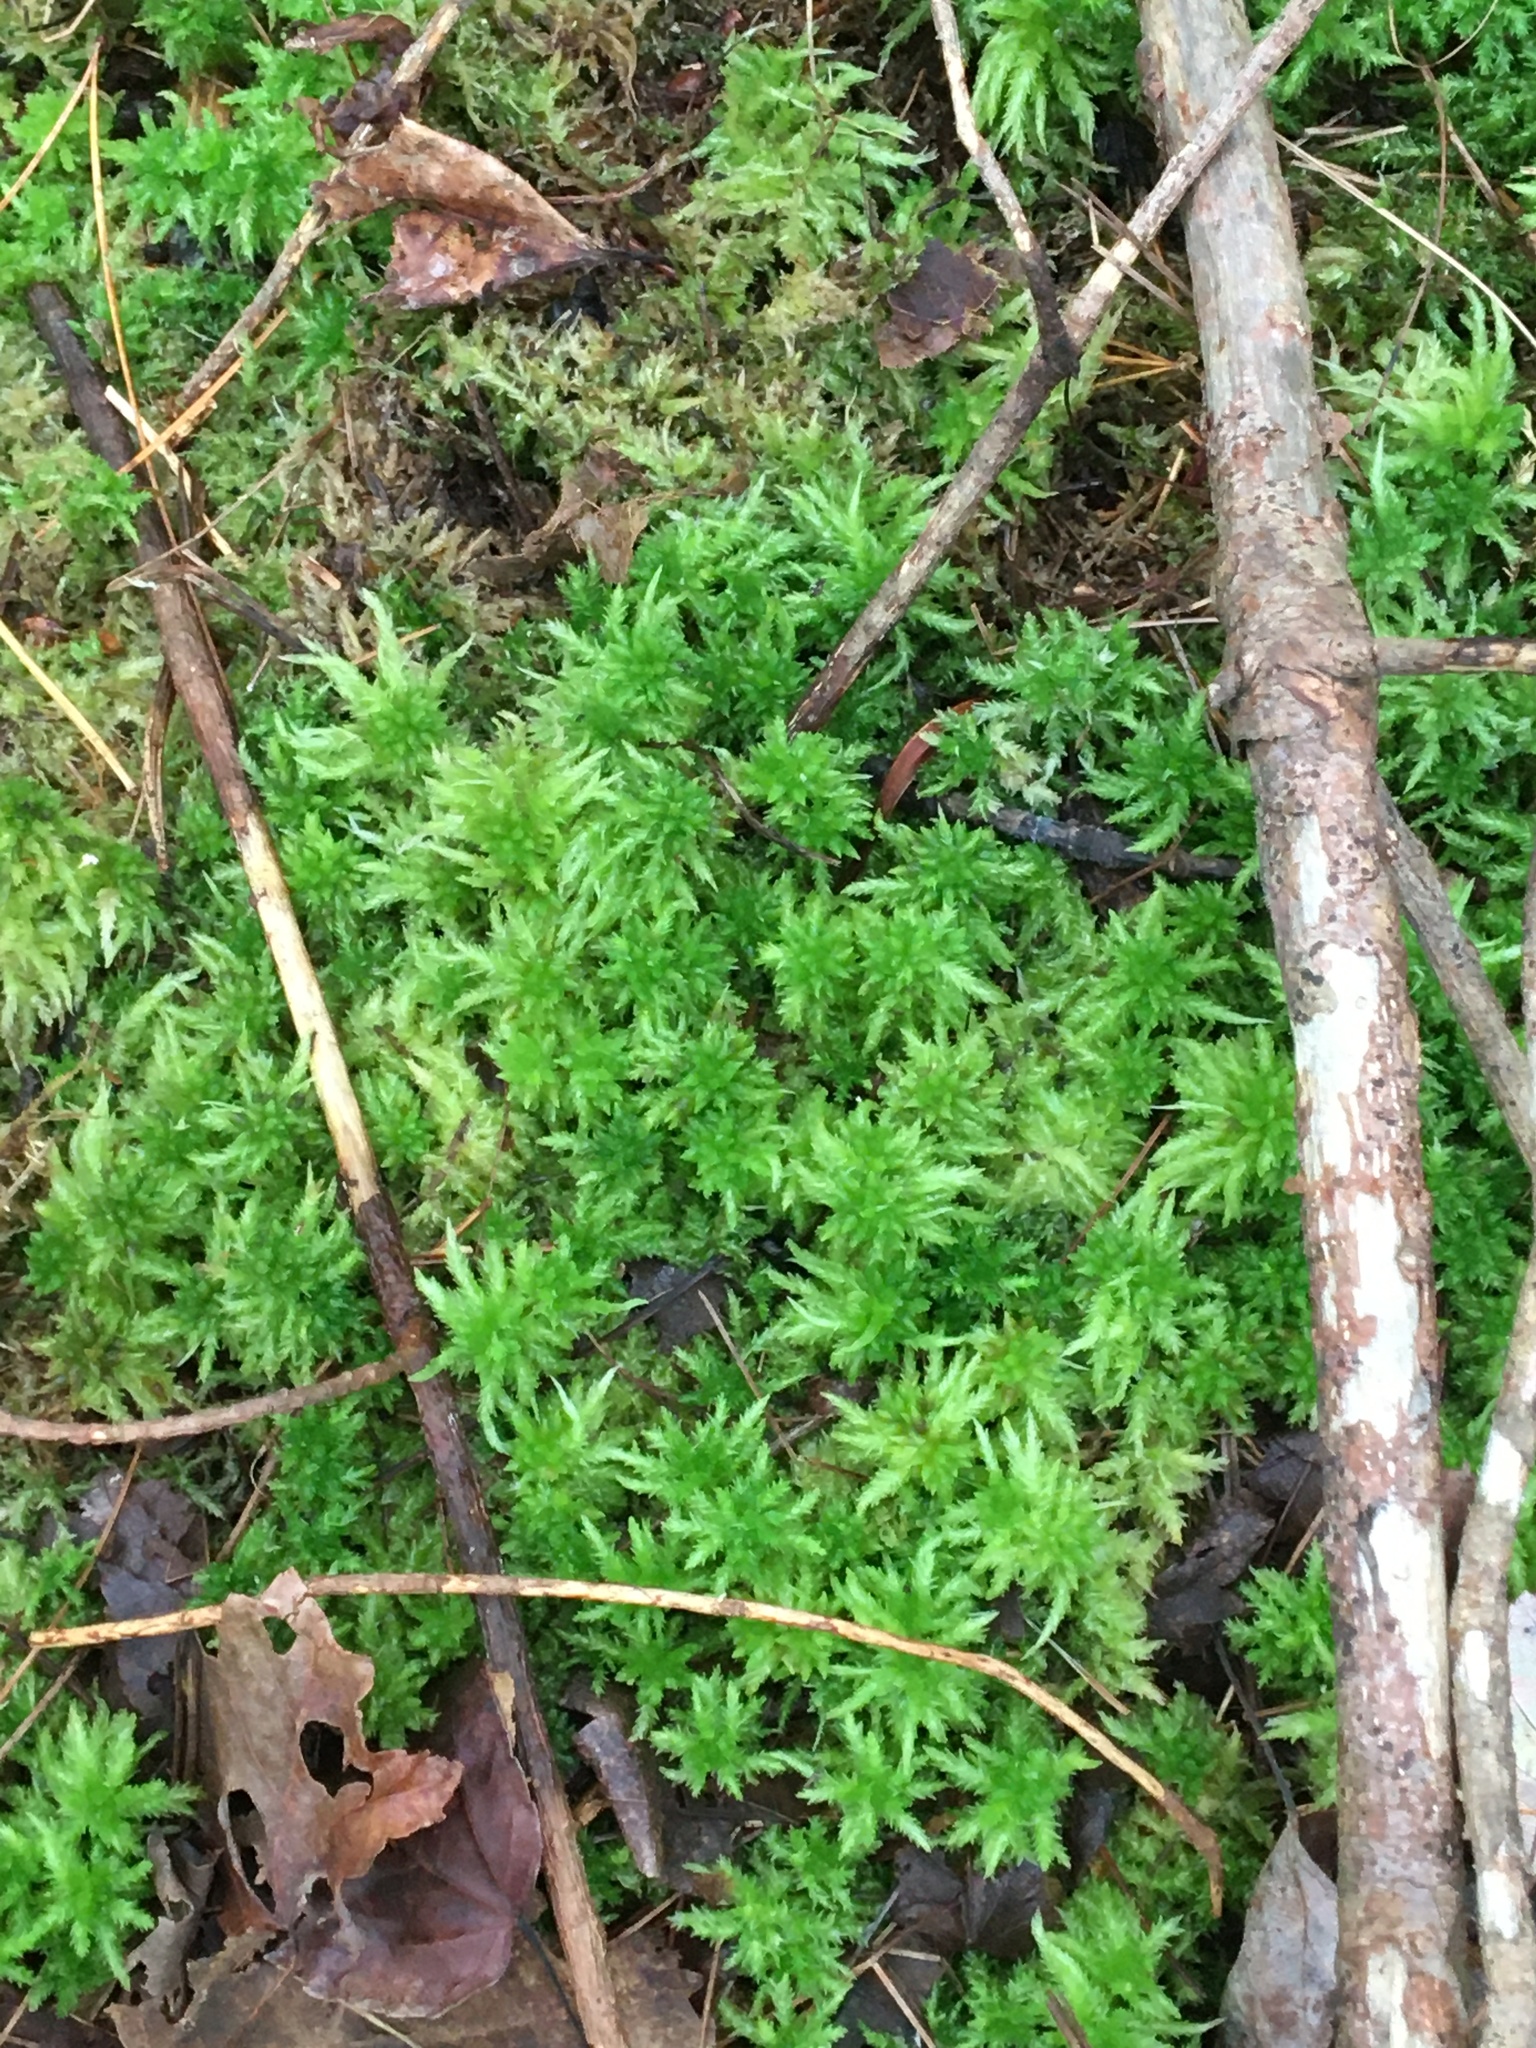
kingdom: Plantae
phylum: Bryophyta
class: Sphagnopsida
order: Sphagnales
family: Sphagnaceae
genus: Sphagnum
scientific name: Sphagnum
